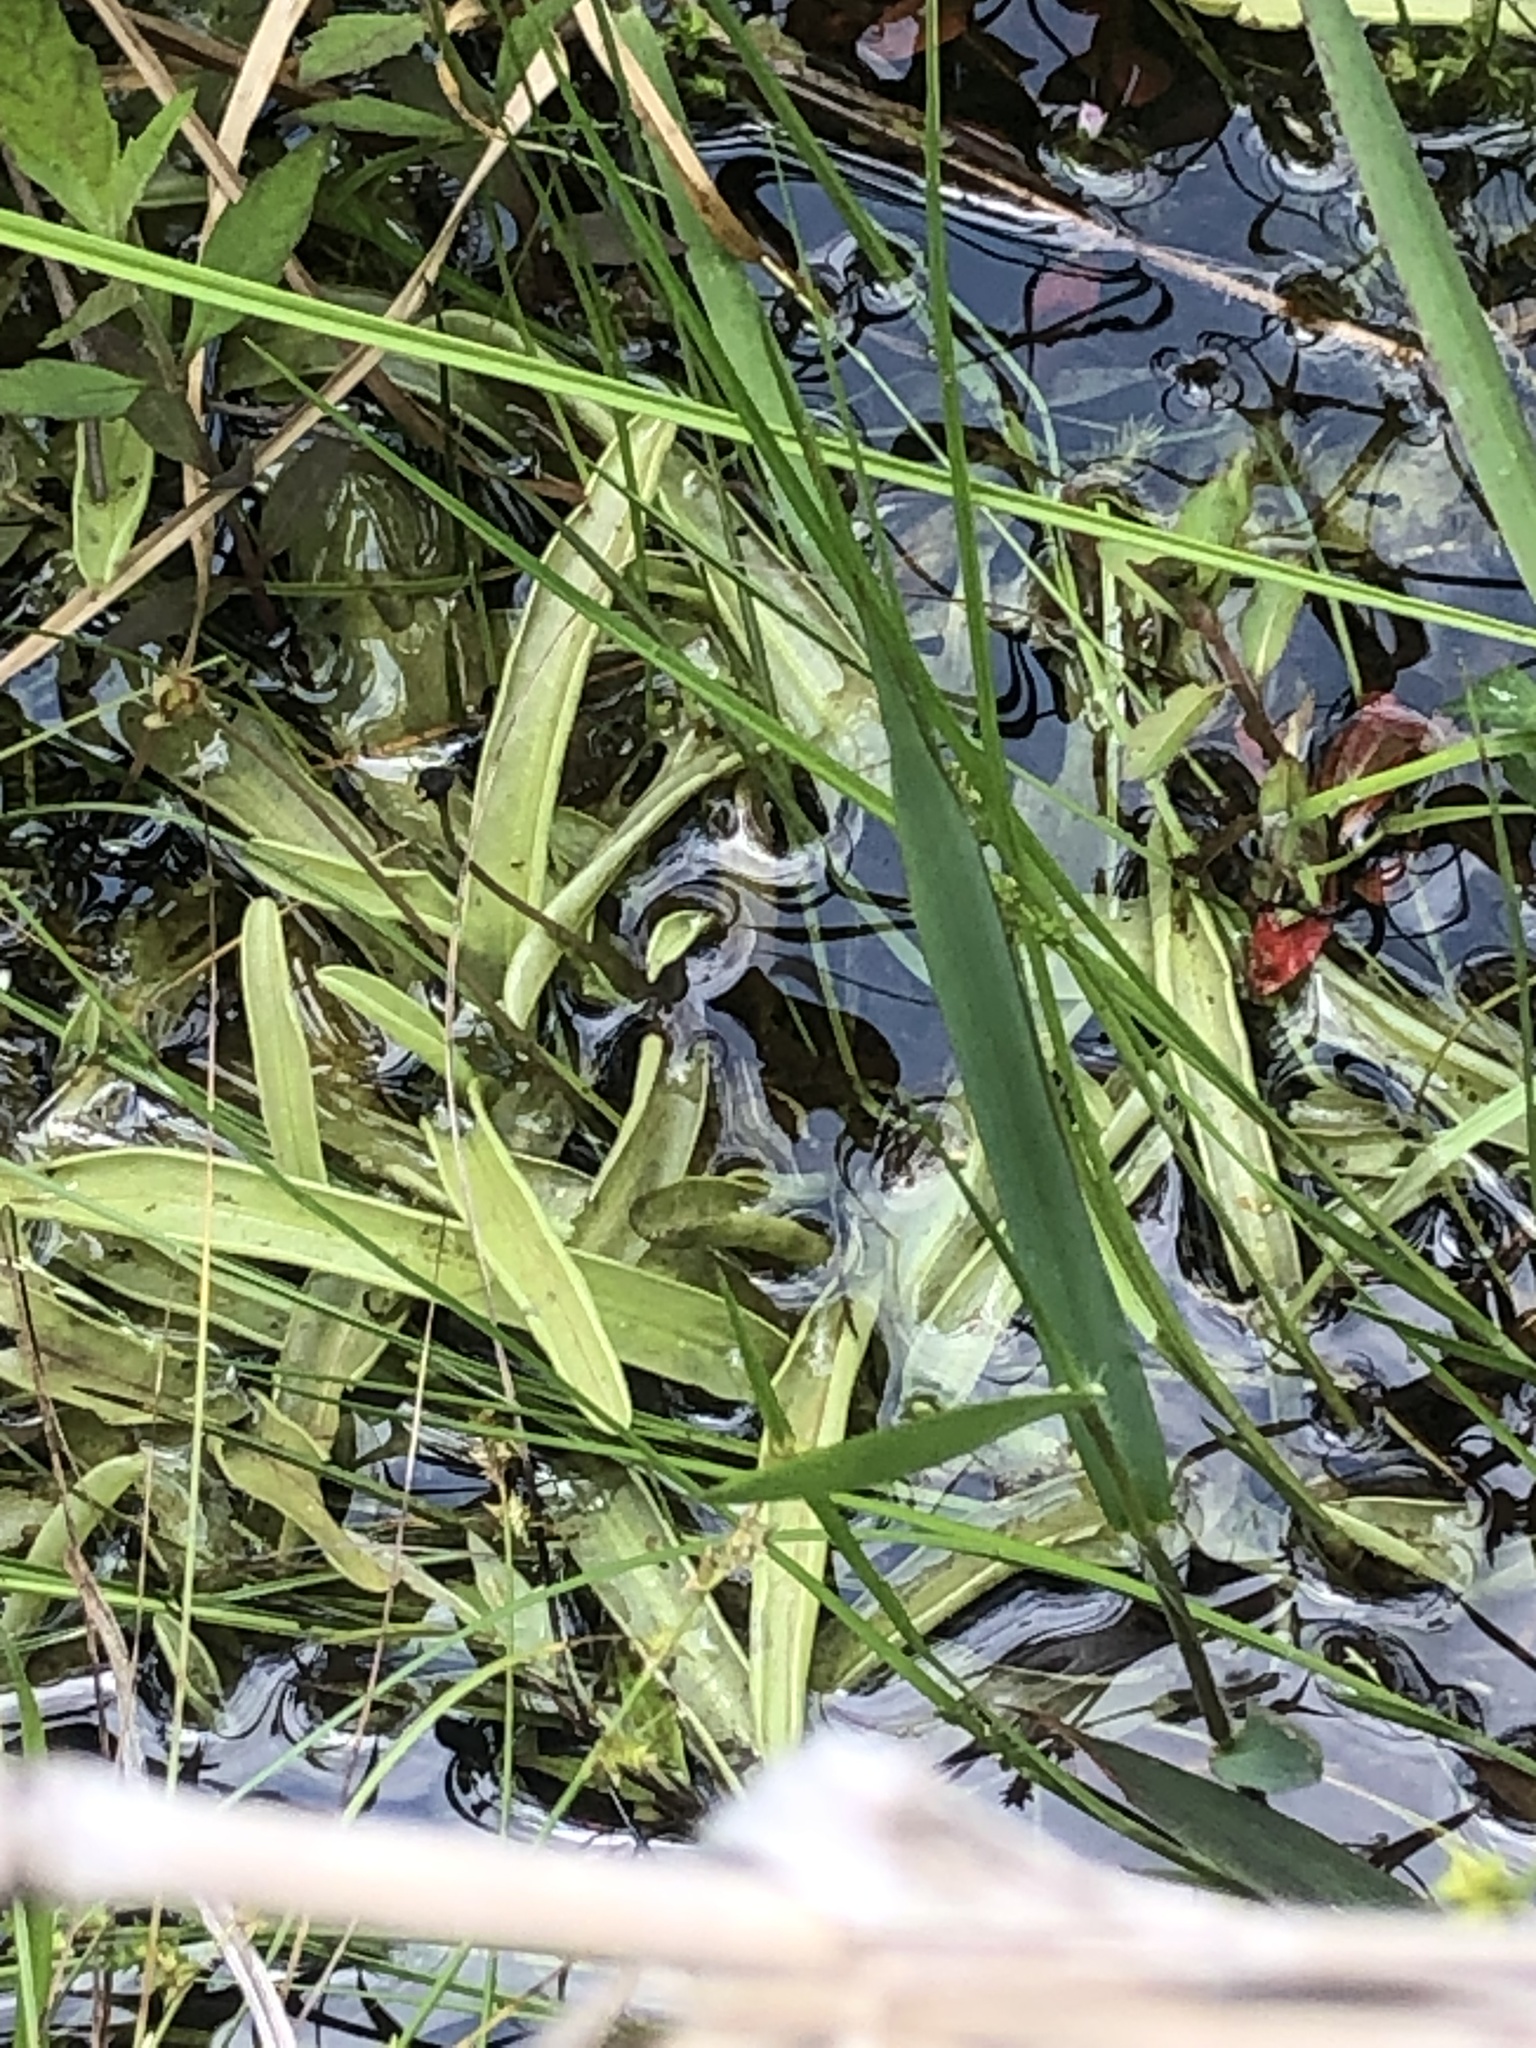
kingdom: Plantae
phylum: Tracheophyta
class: Magnoliopsida
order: Lamiales
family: Lentibulariaceae
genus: Pinguicula
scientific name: Pinguicula primuliflora
